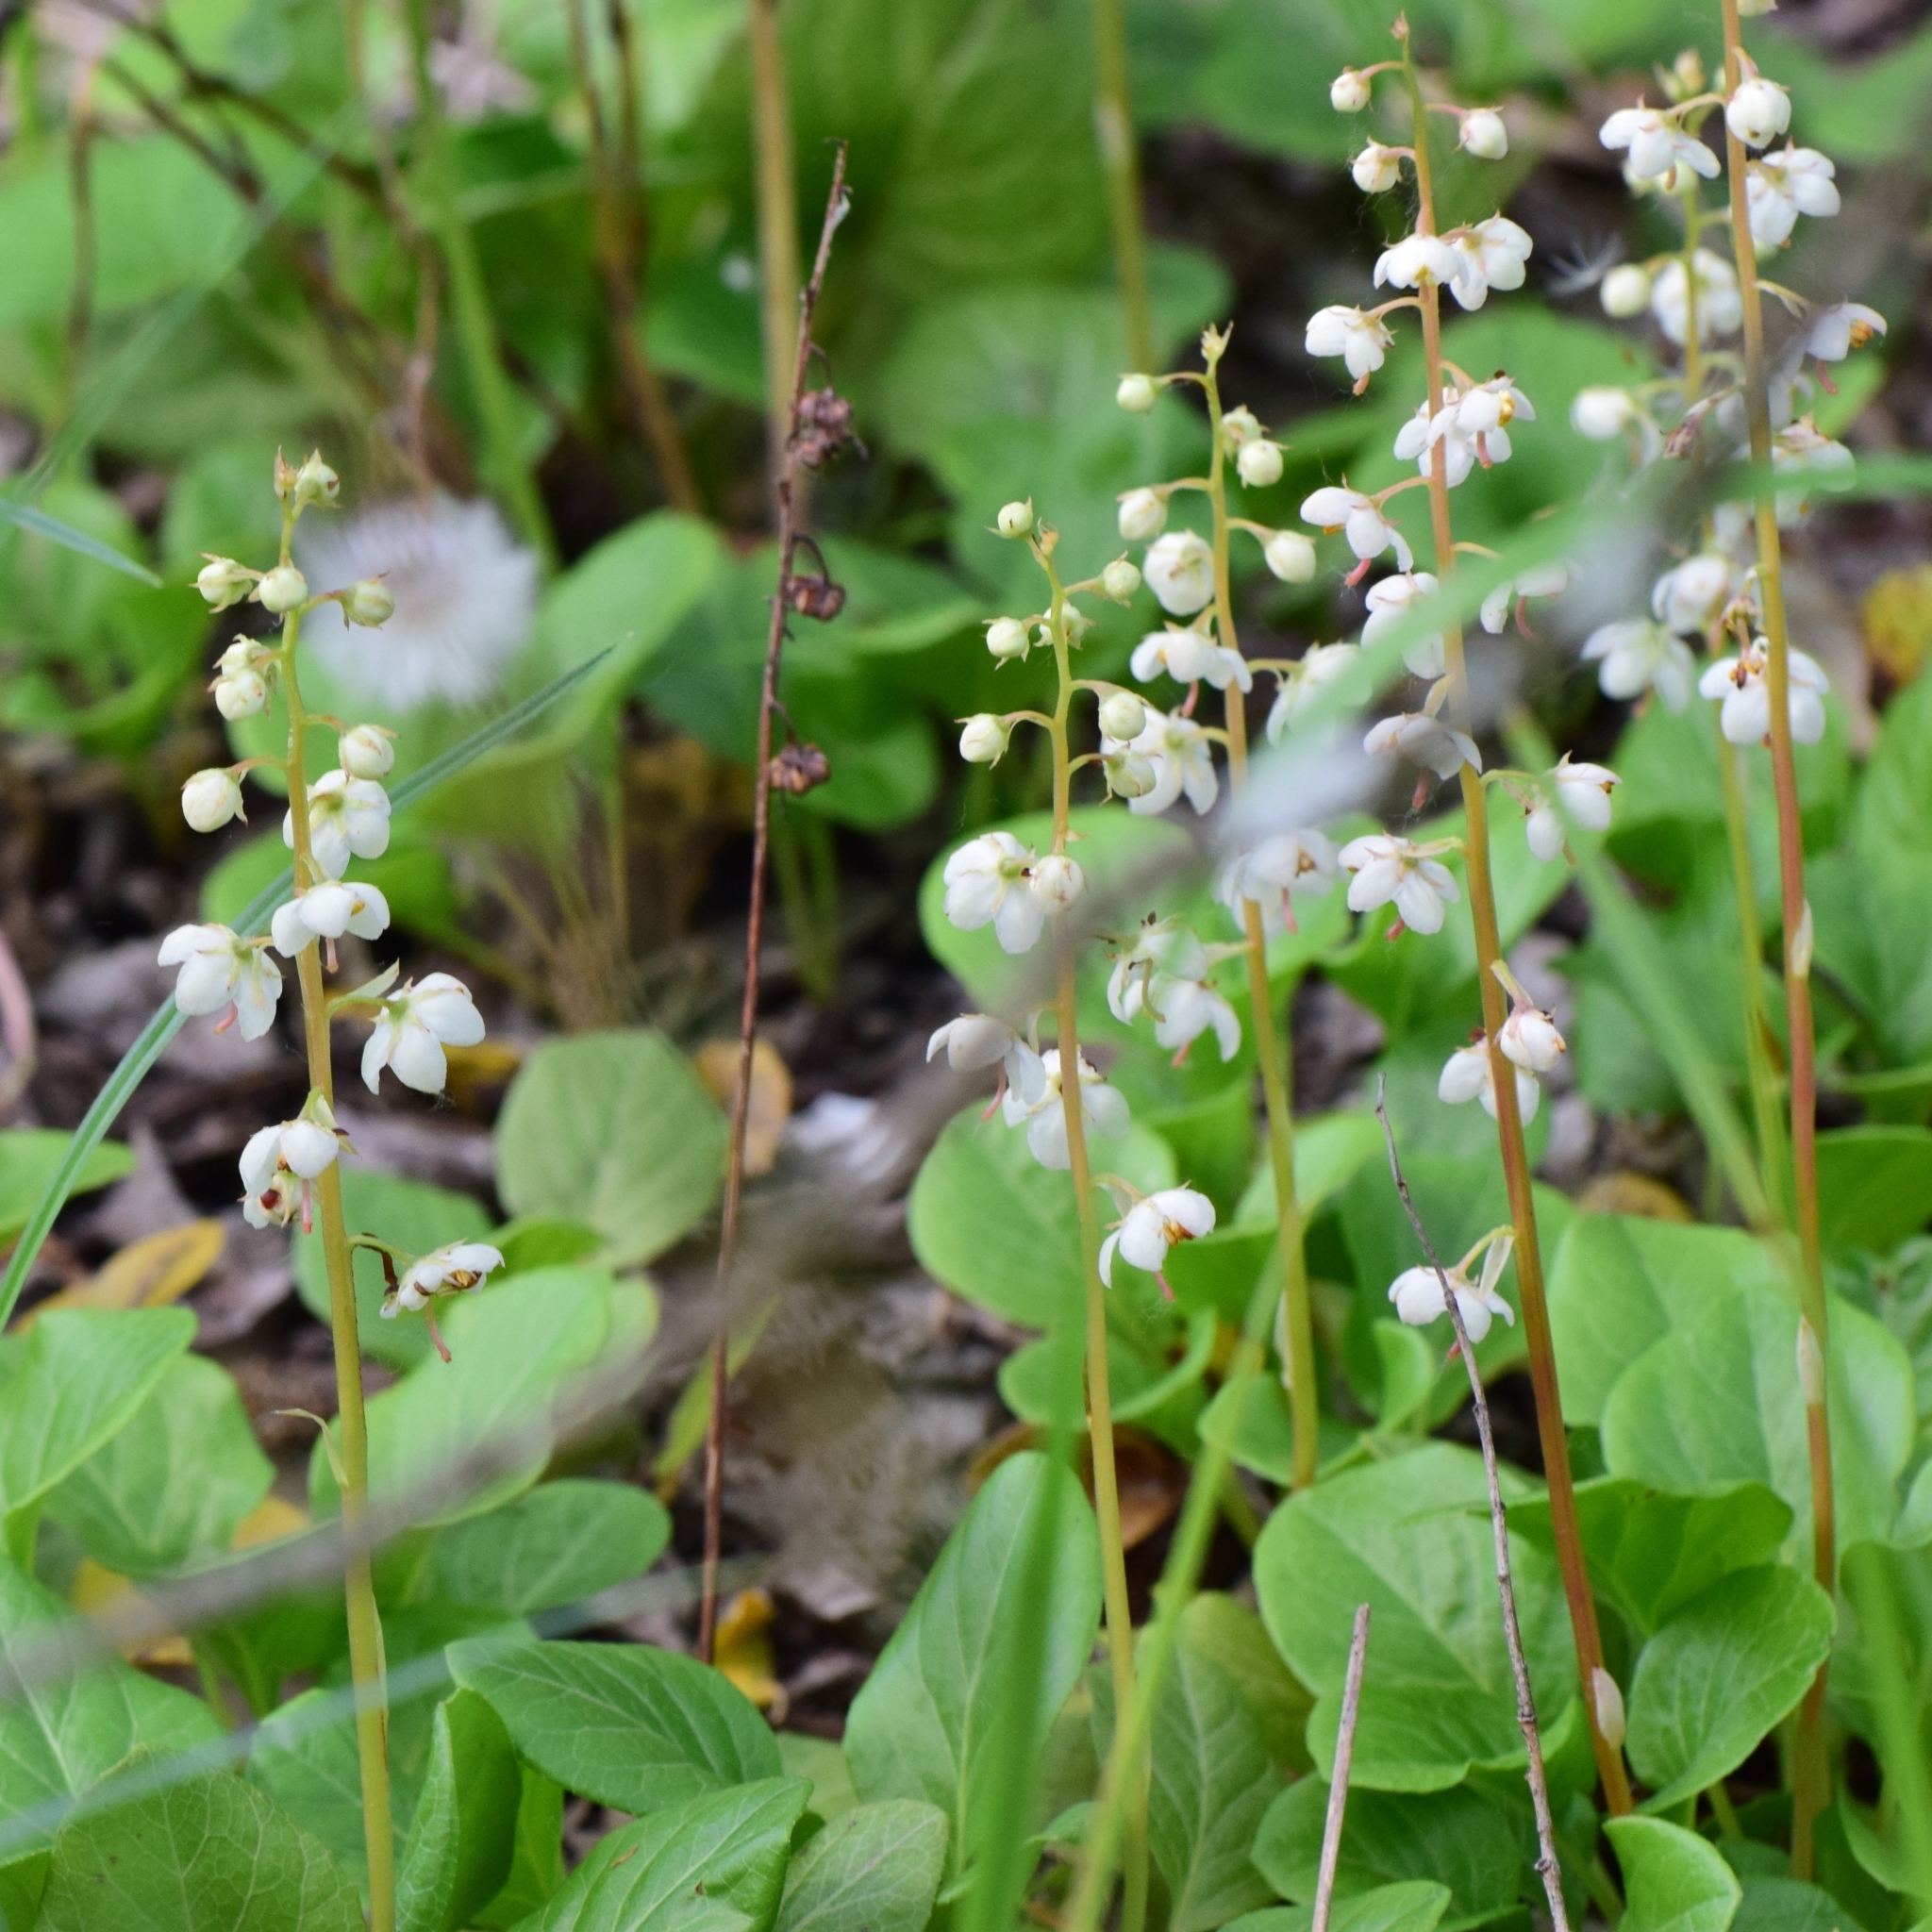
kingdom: Plantae
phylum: Tracheophyta
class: Magnoliopsida
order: Ericales
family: Ericaceae
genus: Pyrola
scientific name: Pyrola rotundifolia
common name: Round-leaved wintergreen
